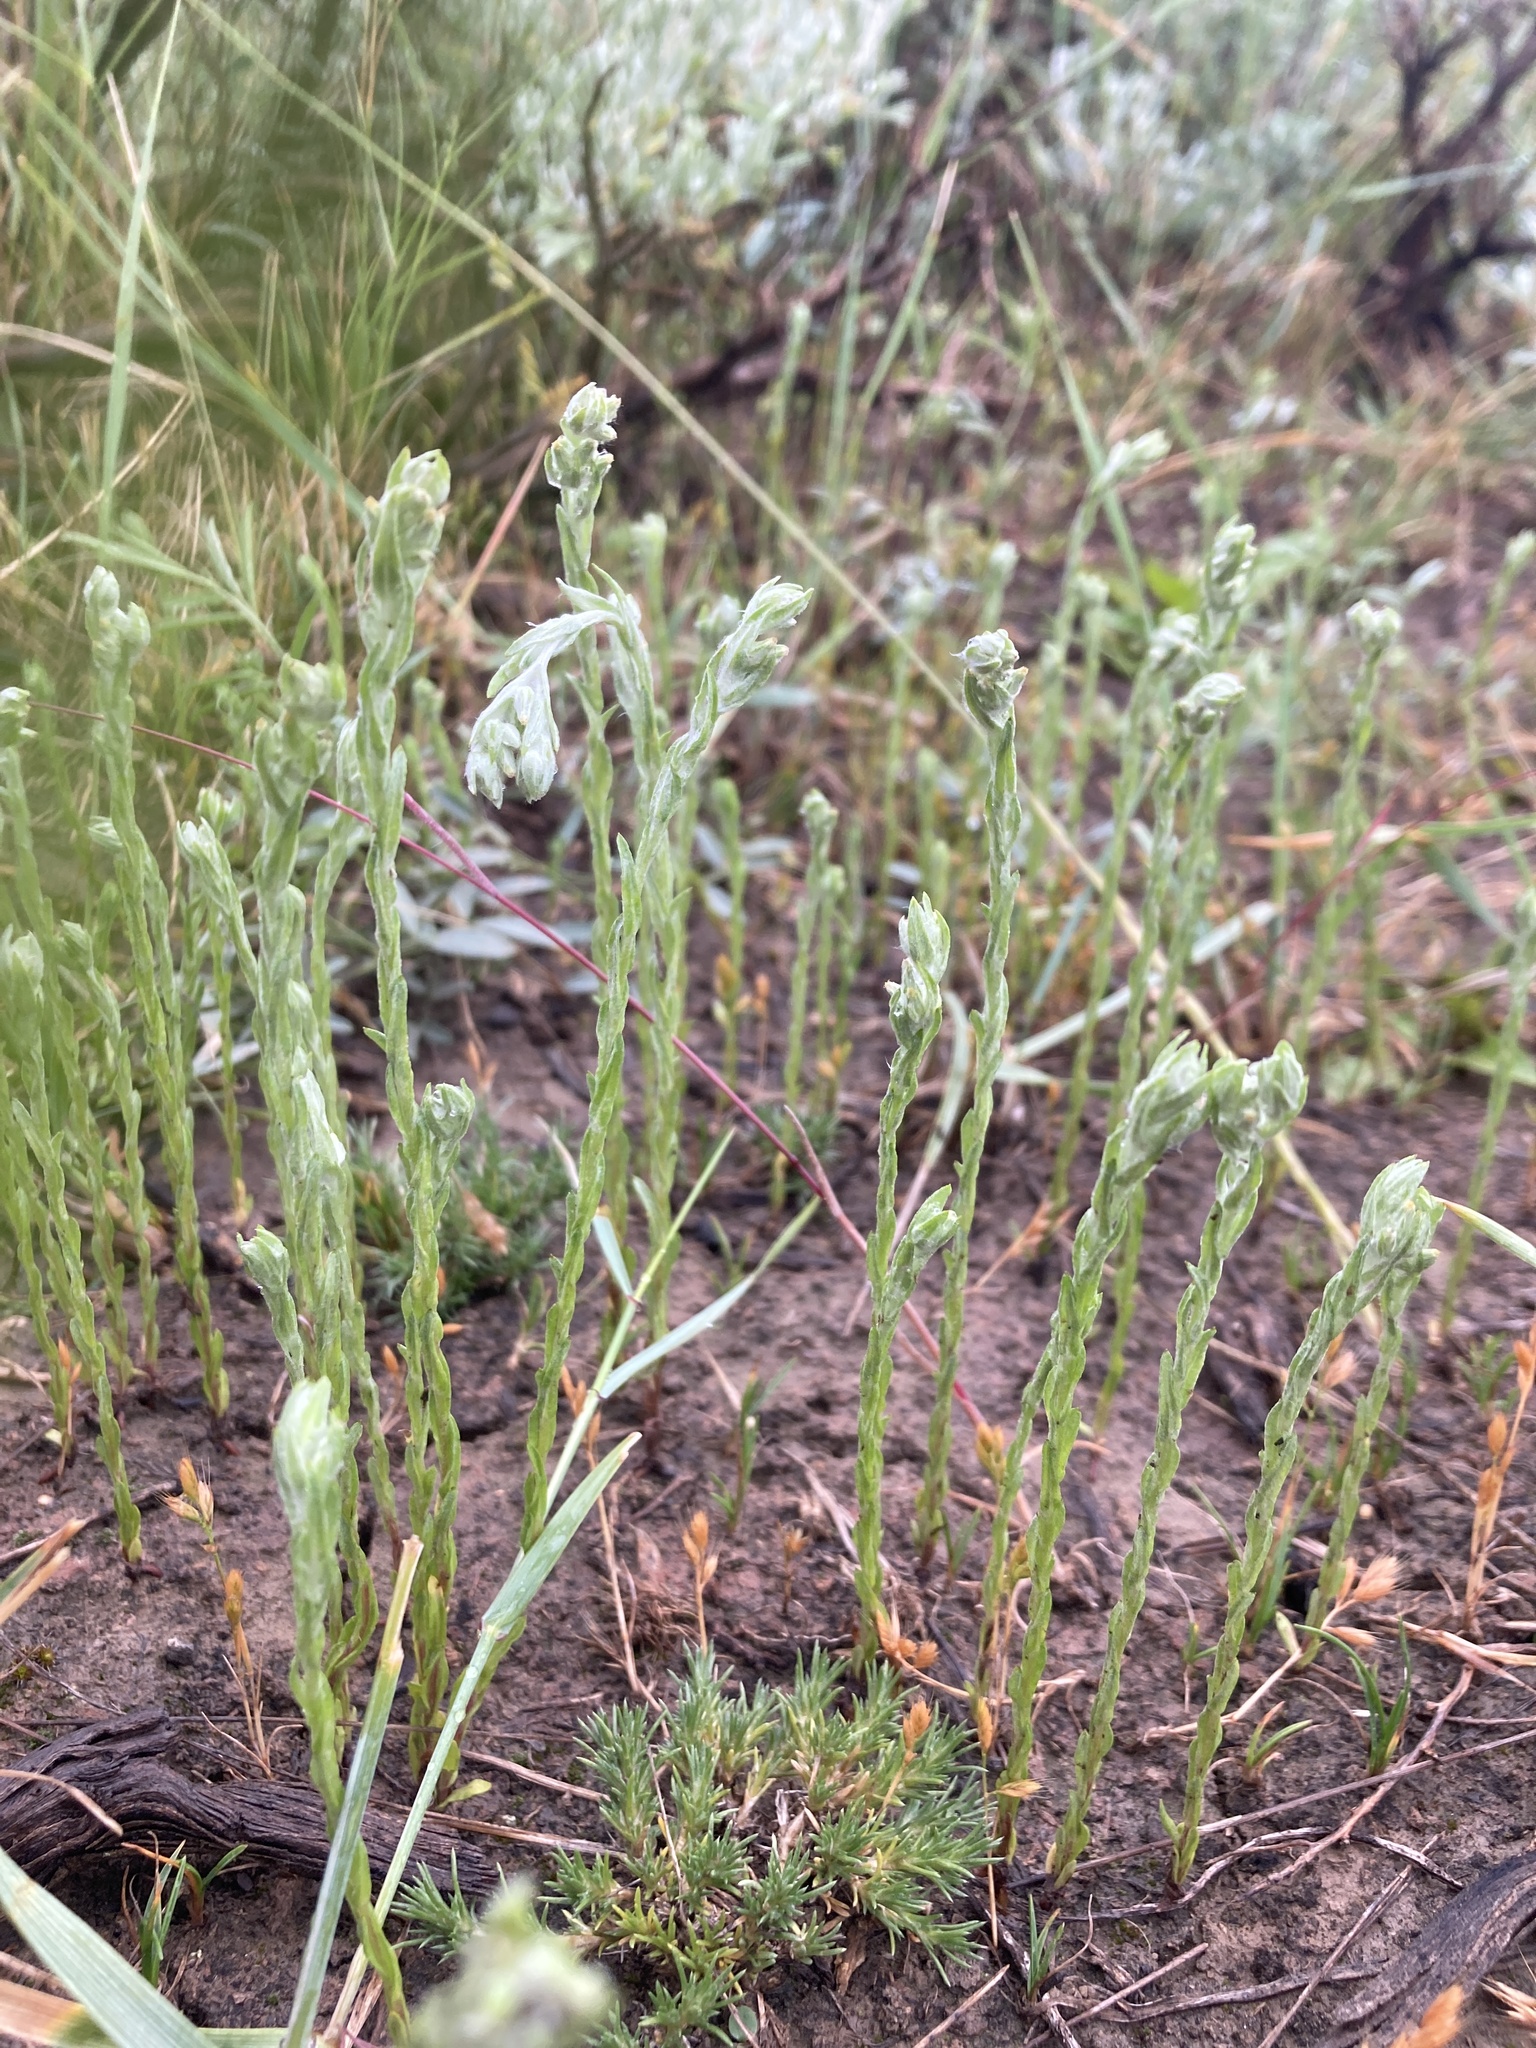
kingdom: Plantae
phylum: Tracheophyta
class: Magnoliopsida
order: Asterales
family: Asteraceae
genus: Filago
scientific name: Filago arvensis
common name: Field cudweed
